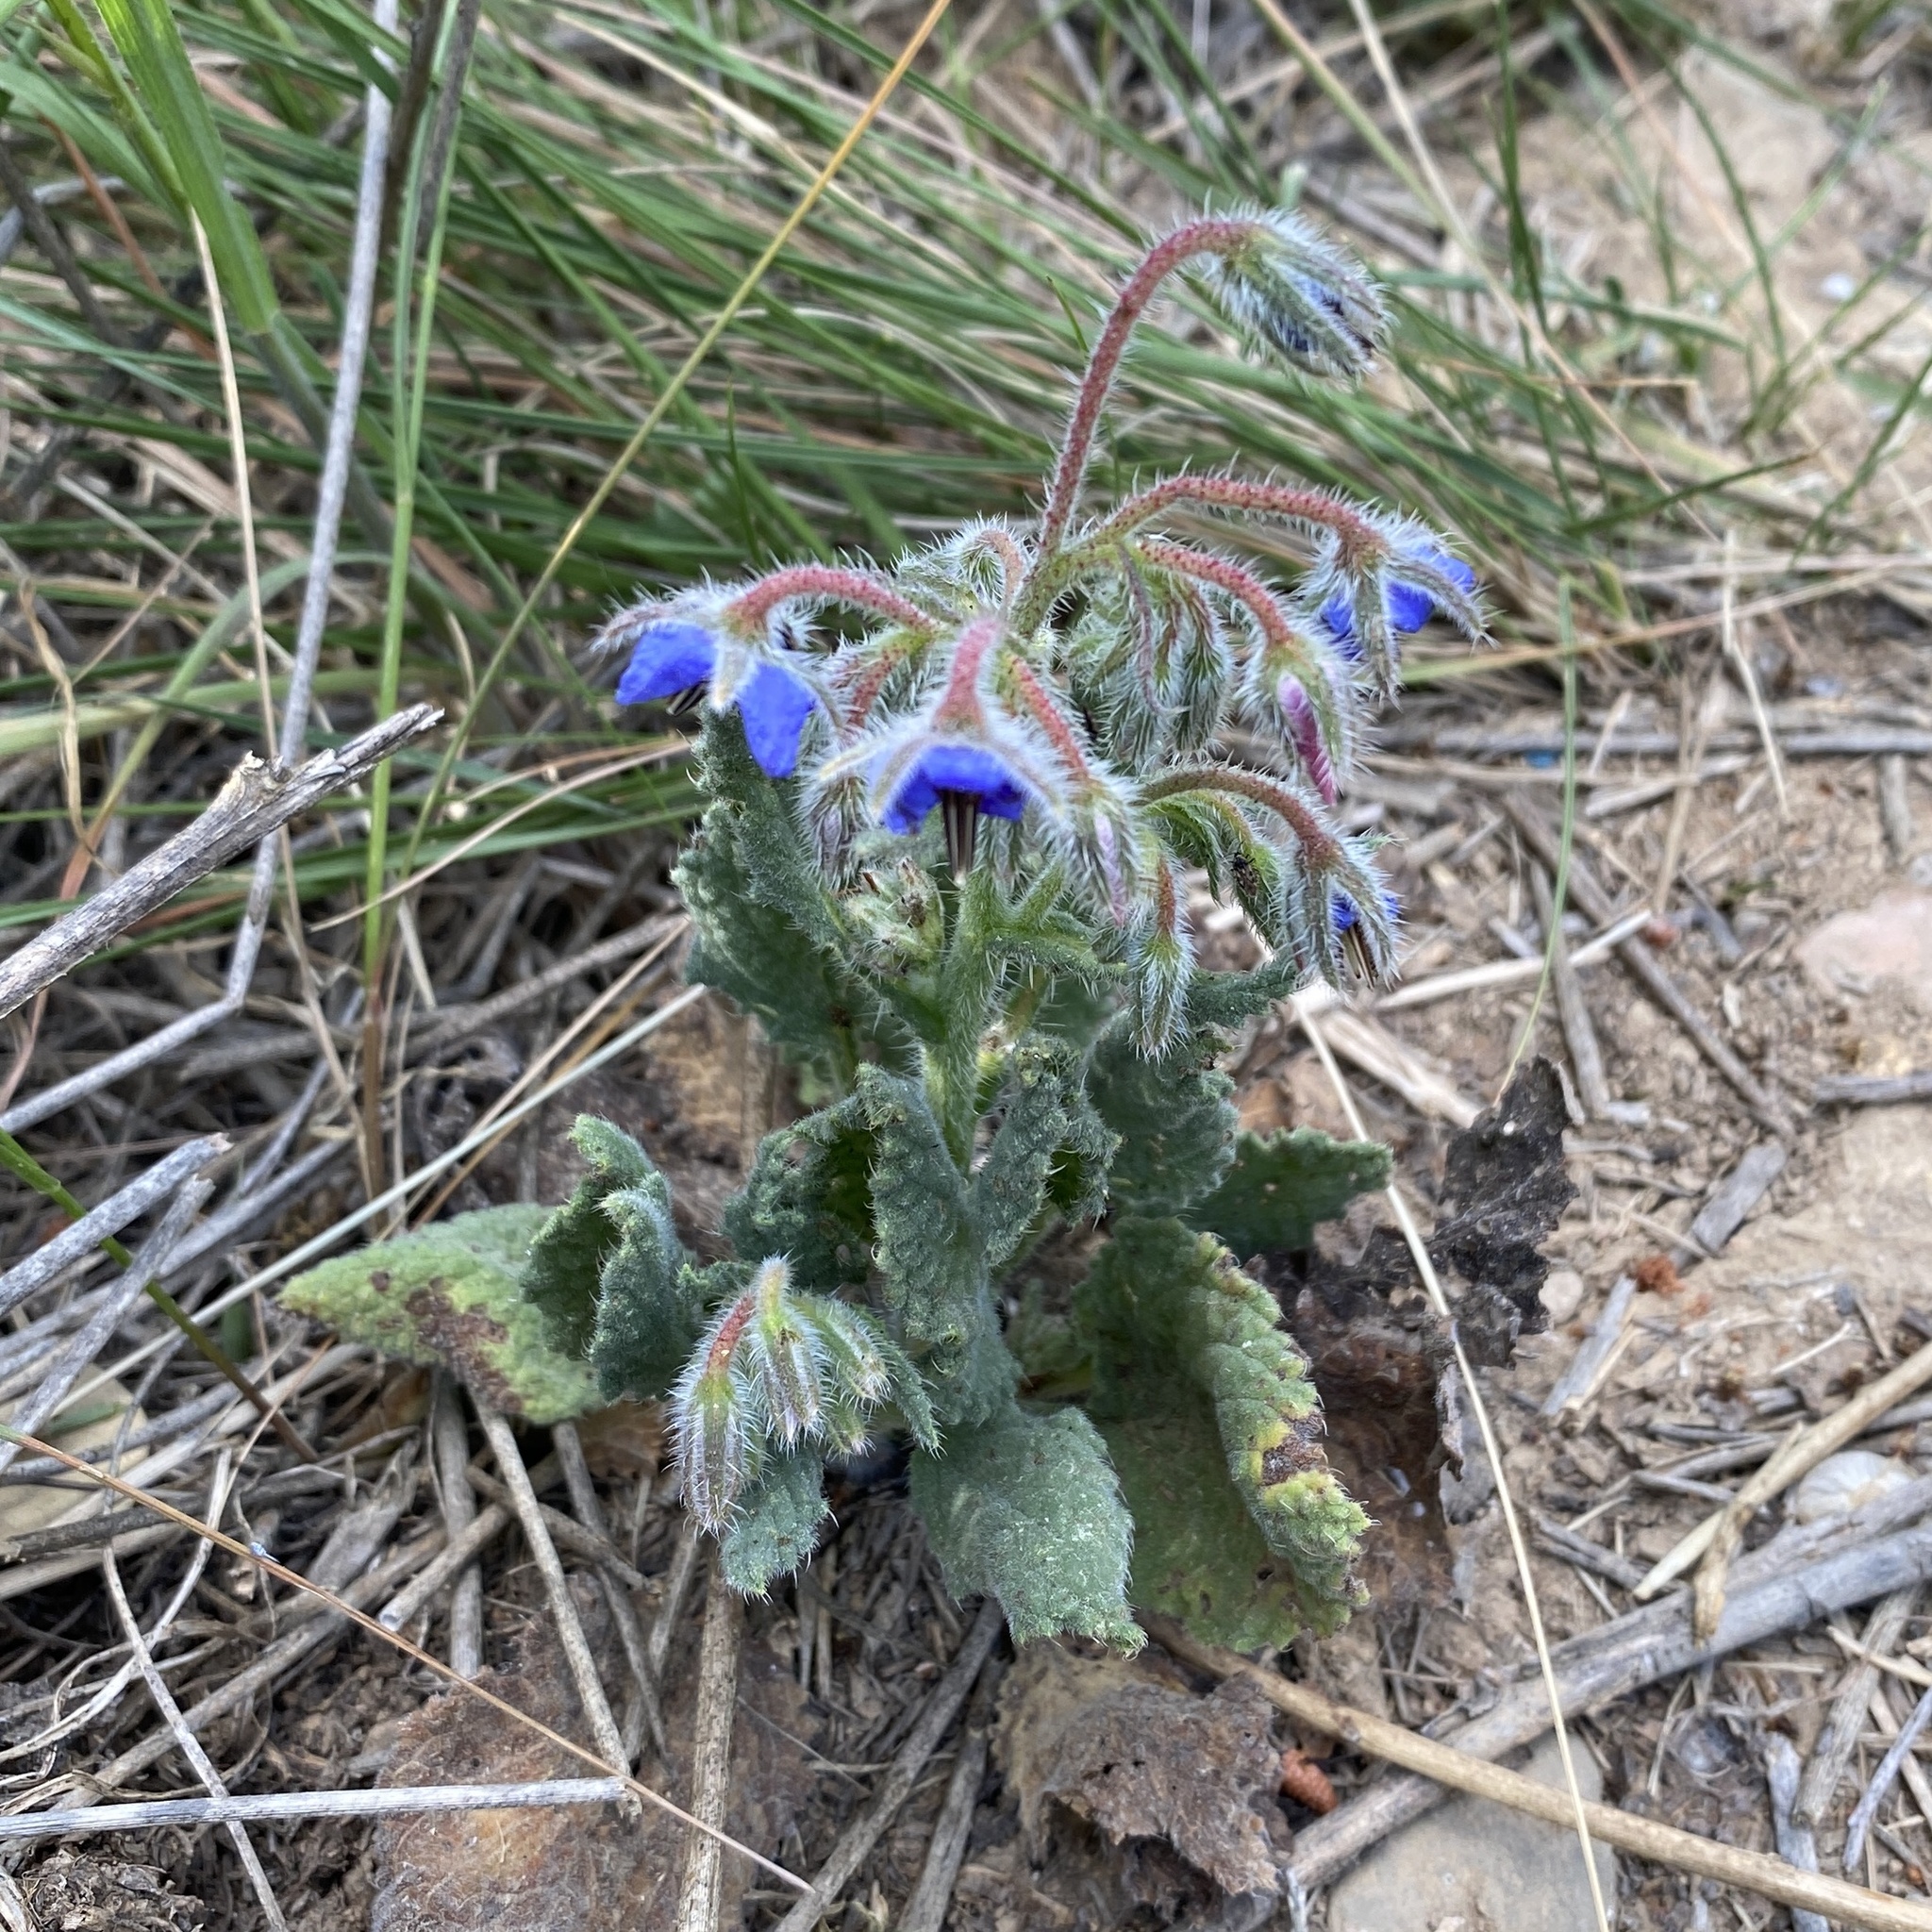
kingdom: Plantae
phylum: Tracheophyta
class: Magnoliopsida
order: Boraginales
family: Boraginaceae
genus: Borago
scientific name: Borago officinalis
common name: Borage
